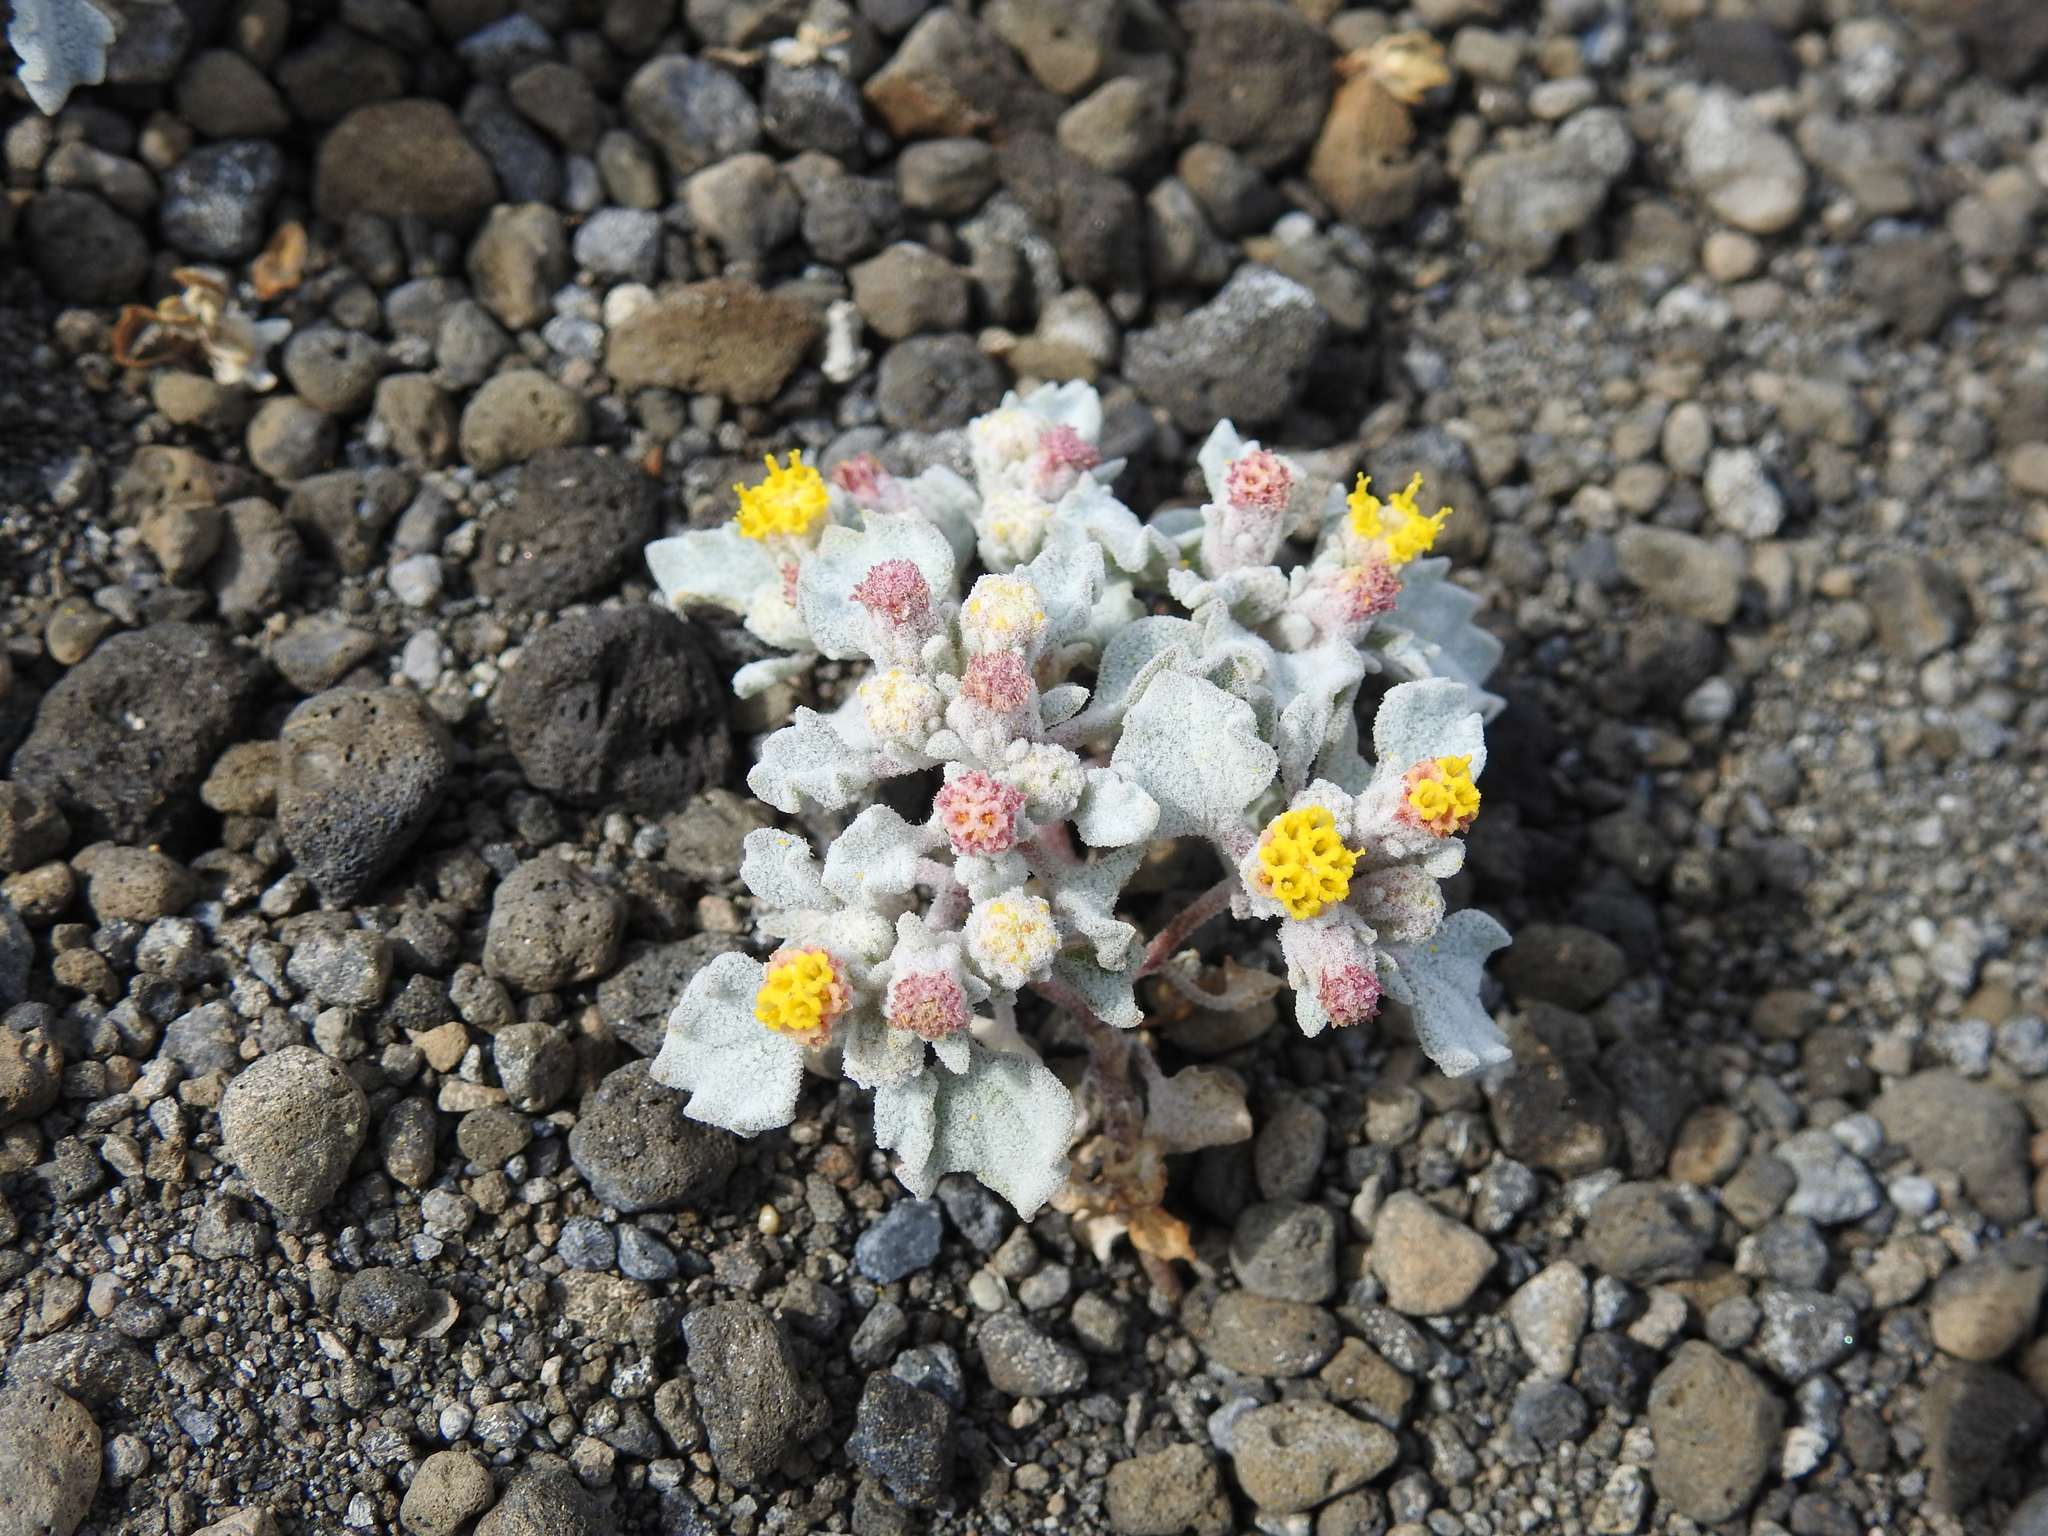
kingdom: Plantae
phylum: Tracheophyta
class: Magnoliopsida
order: Asterales
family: Asteraceae
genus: Psathyrotes
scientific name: Psathyrotes annua
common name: Mealy rosettes
